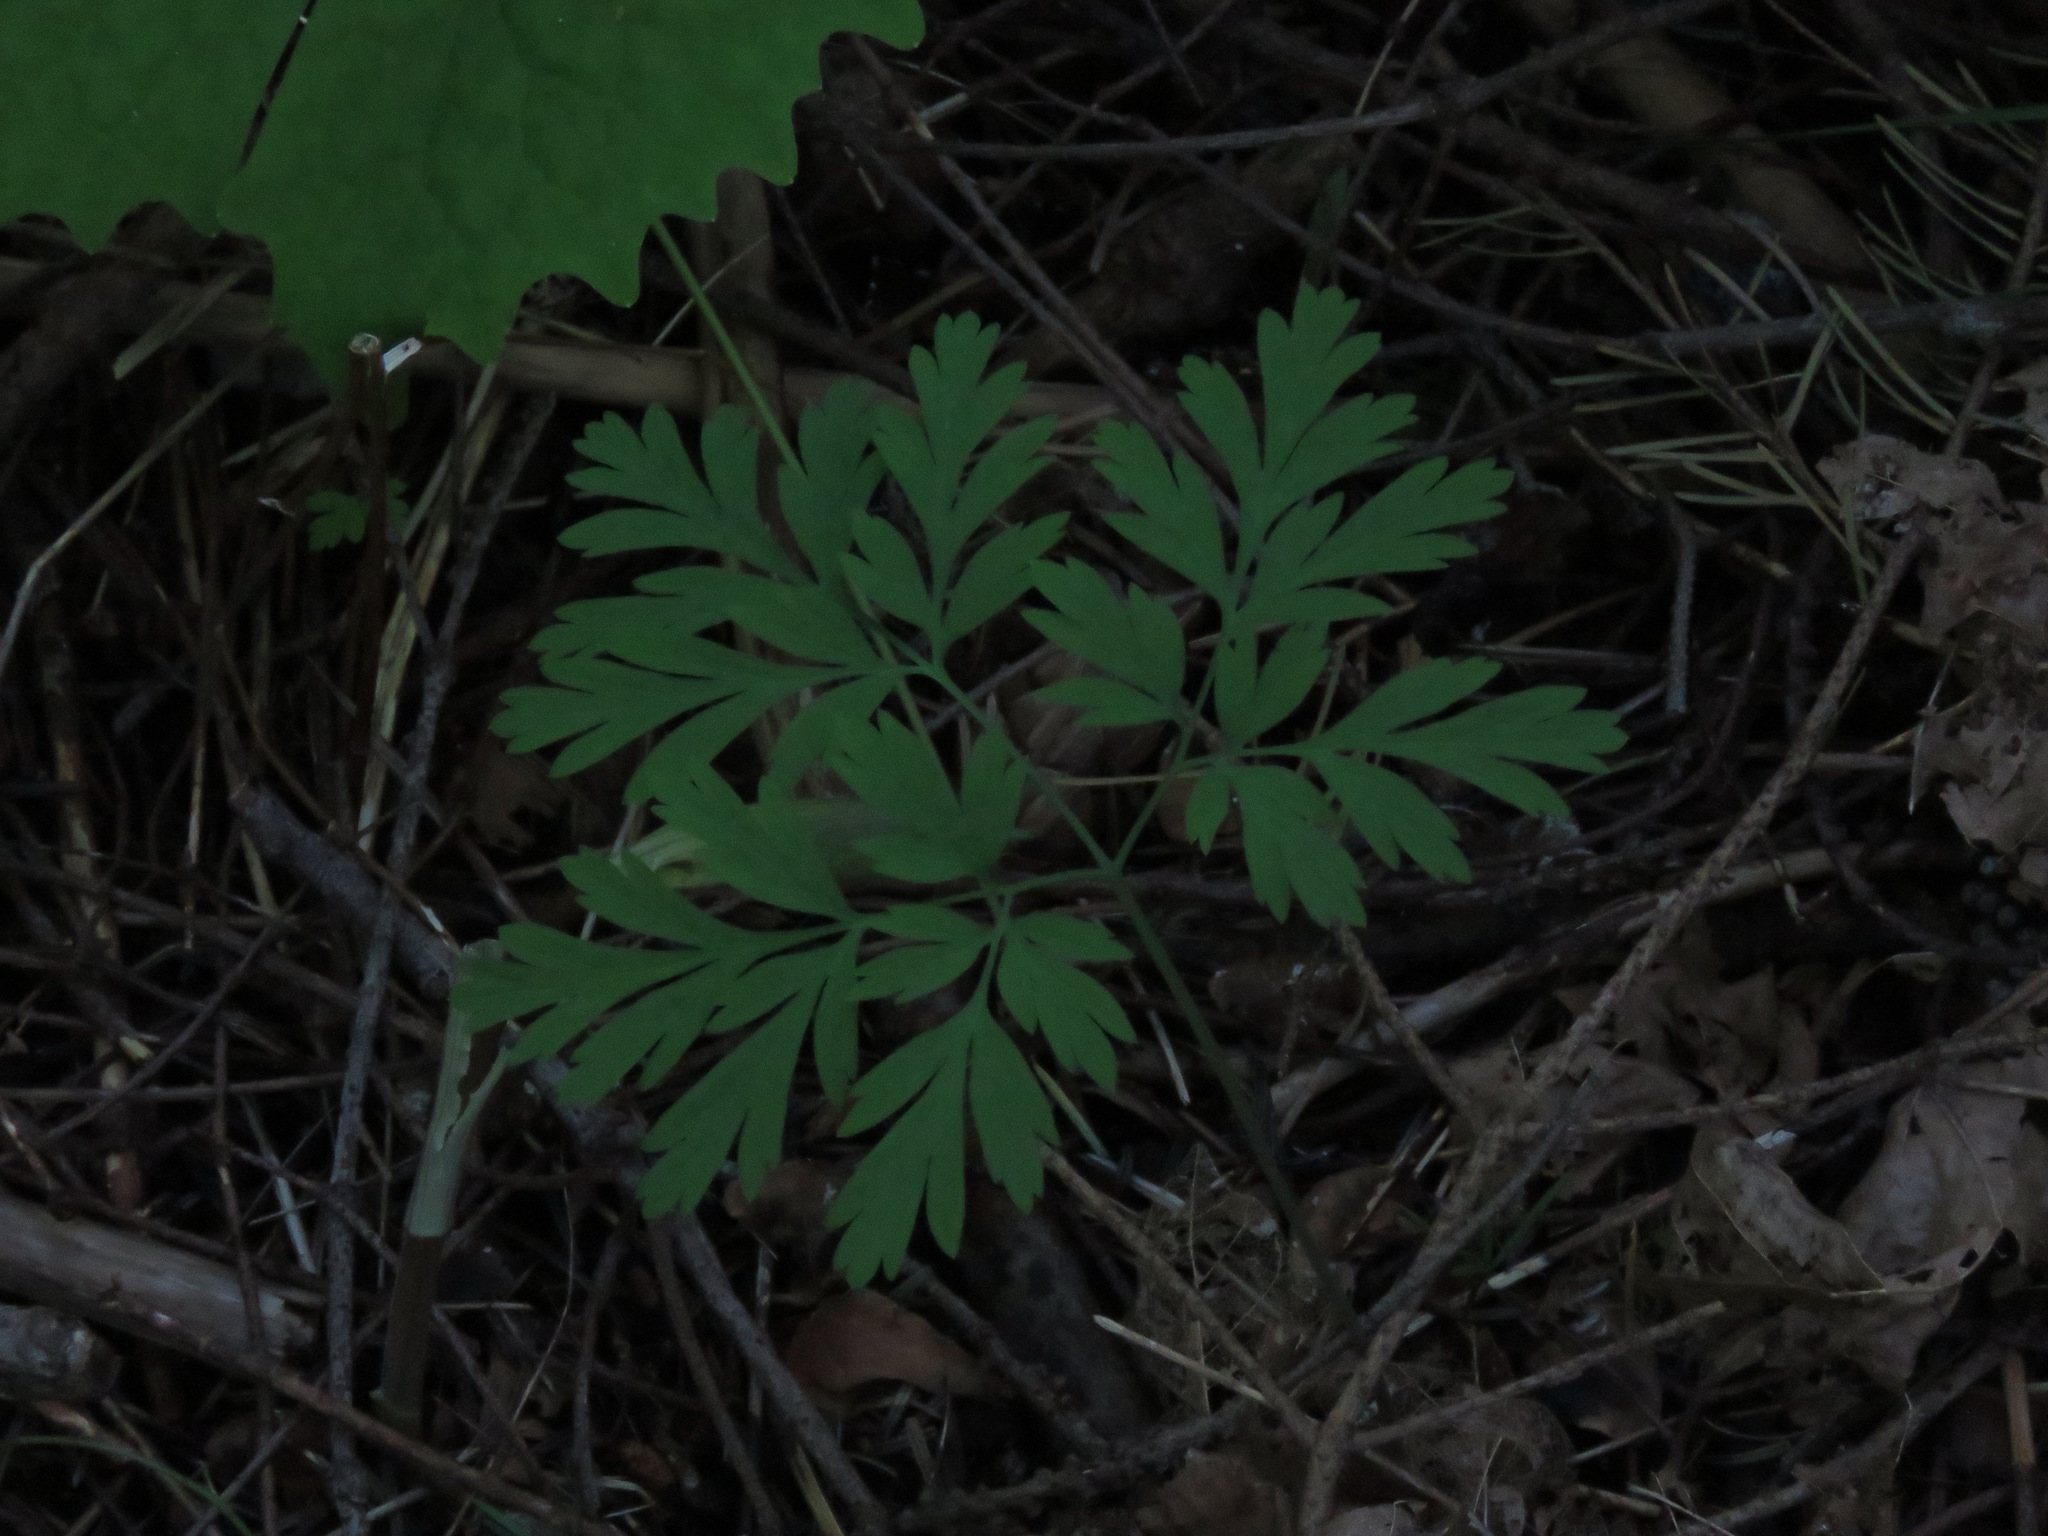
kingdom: Plantae
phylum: Tracheophyta
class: Magnoliopsida
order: Ranunculales
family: Papaveraceae
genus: Dicentra
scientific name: Dicentra formosa
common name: Bleeding-heart
